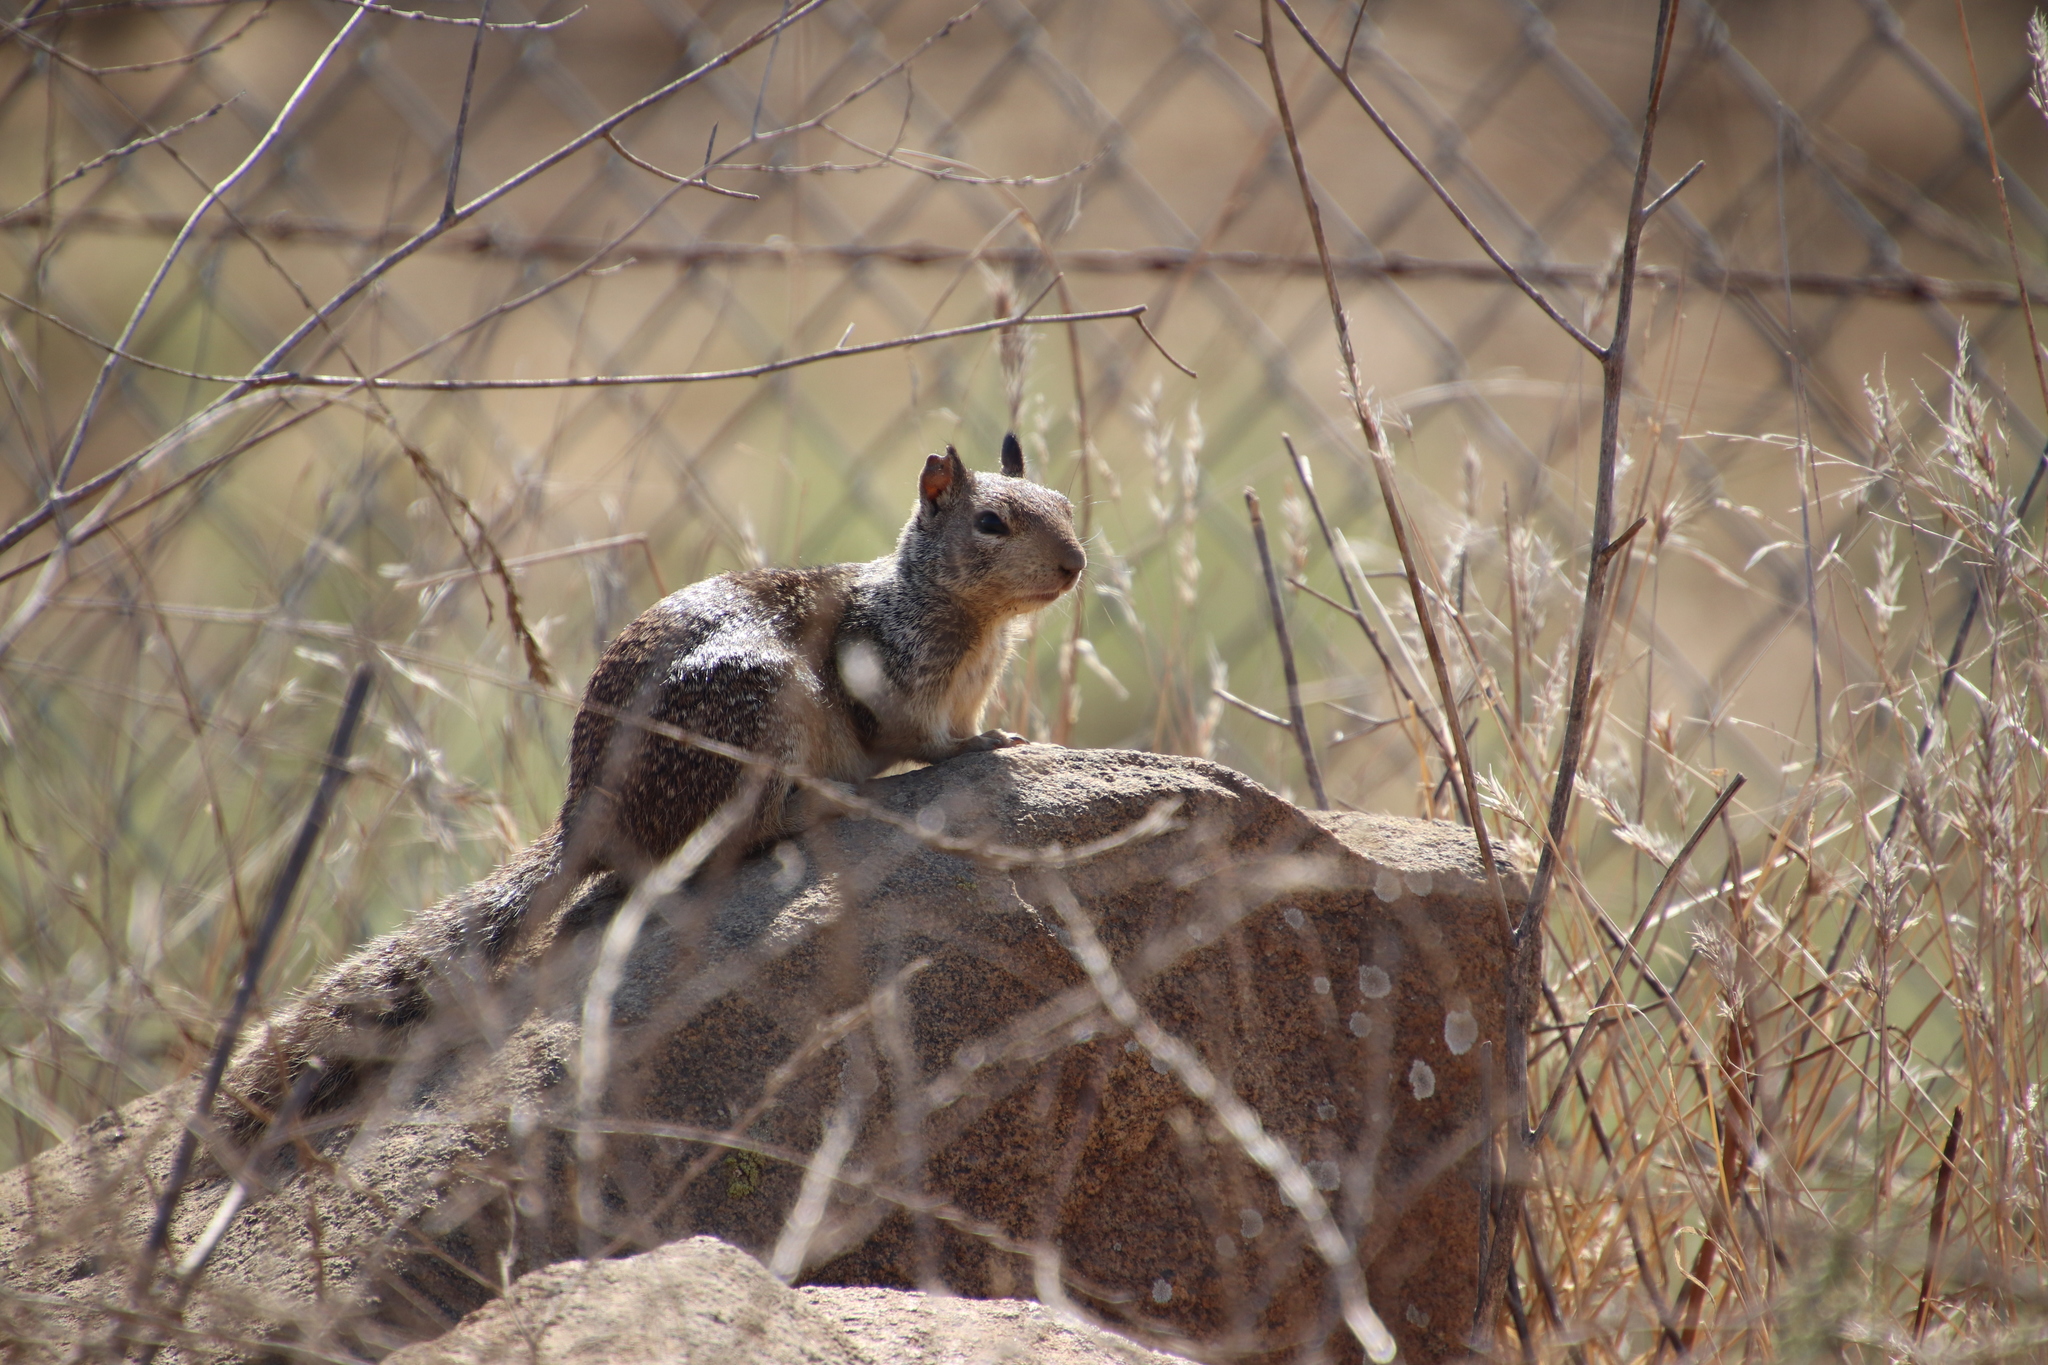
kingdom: Animalia
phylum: Chordata
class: Mammalia
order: Rodentia
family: Sciuridae
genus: Otospermophilus
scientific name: Otospermophilus beecheyi
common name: California ground squirrel
